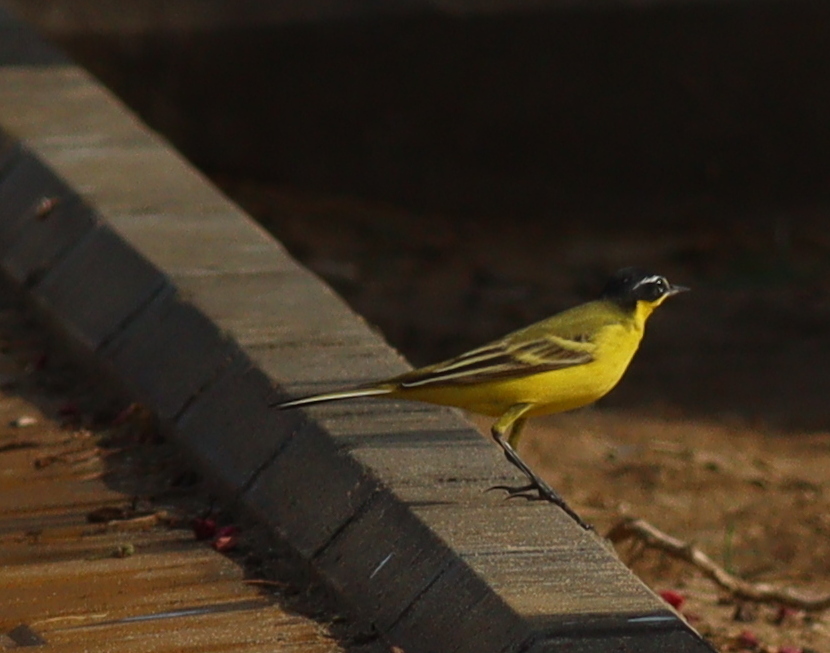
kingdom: Animalia
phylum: Chordata
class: Aves
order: Passeriformes
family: Motacillidae
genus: Motacilla
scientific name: Motacilla flava
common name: Western yellow wagtail
